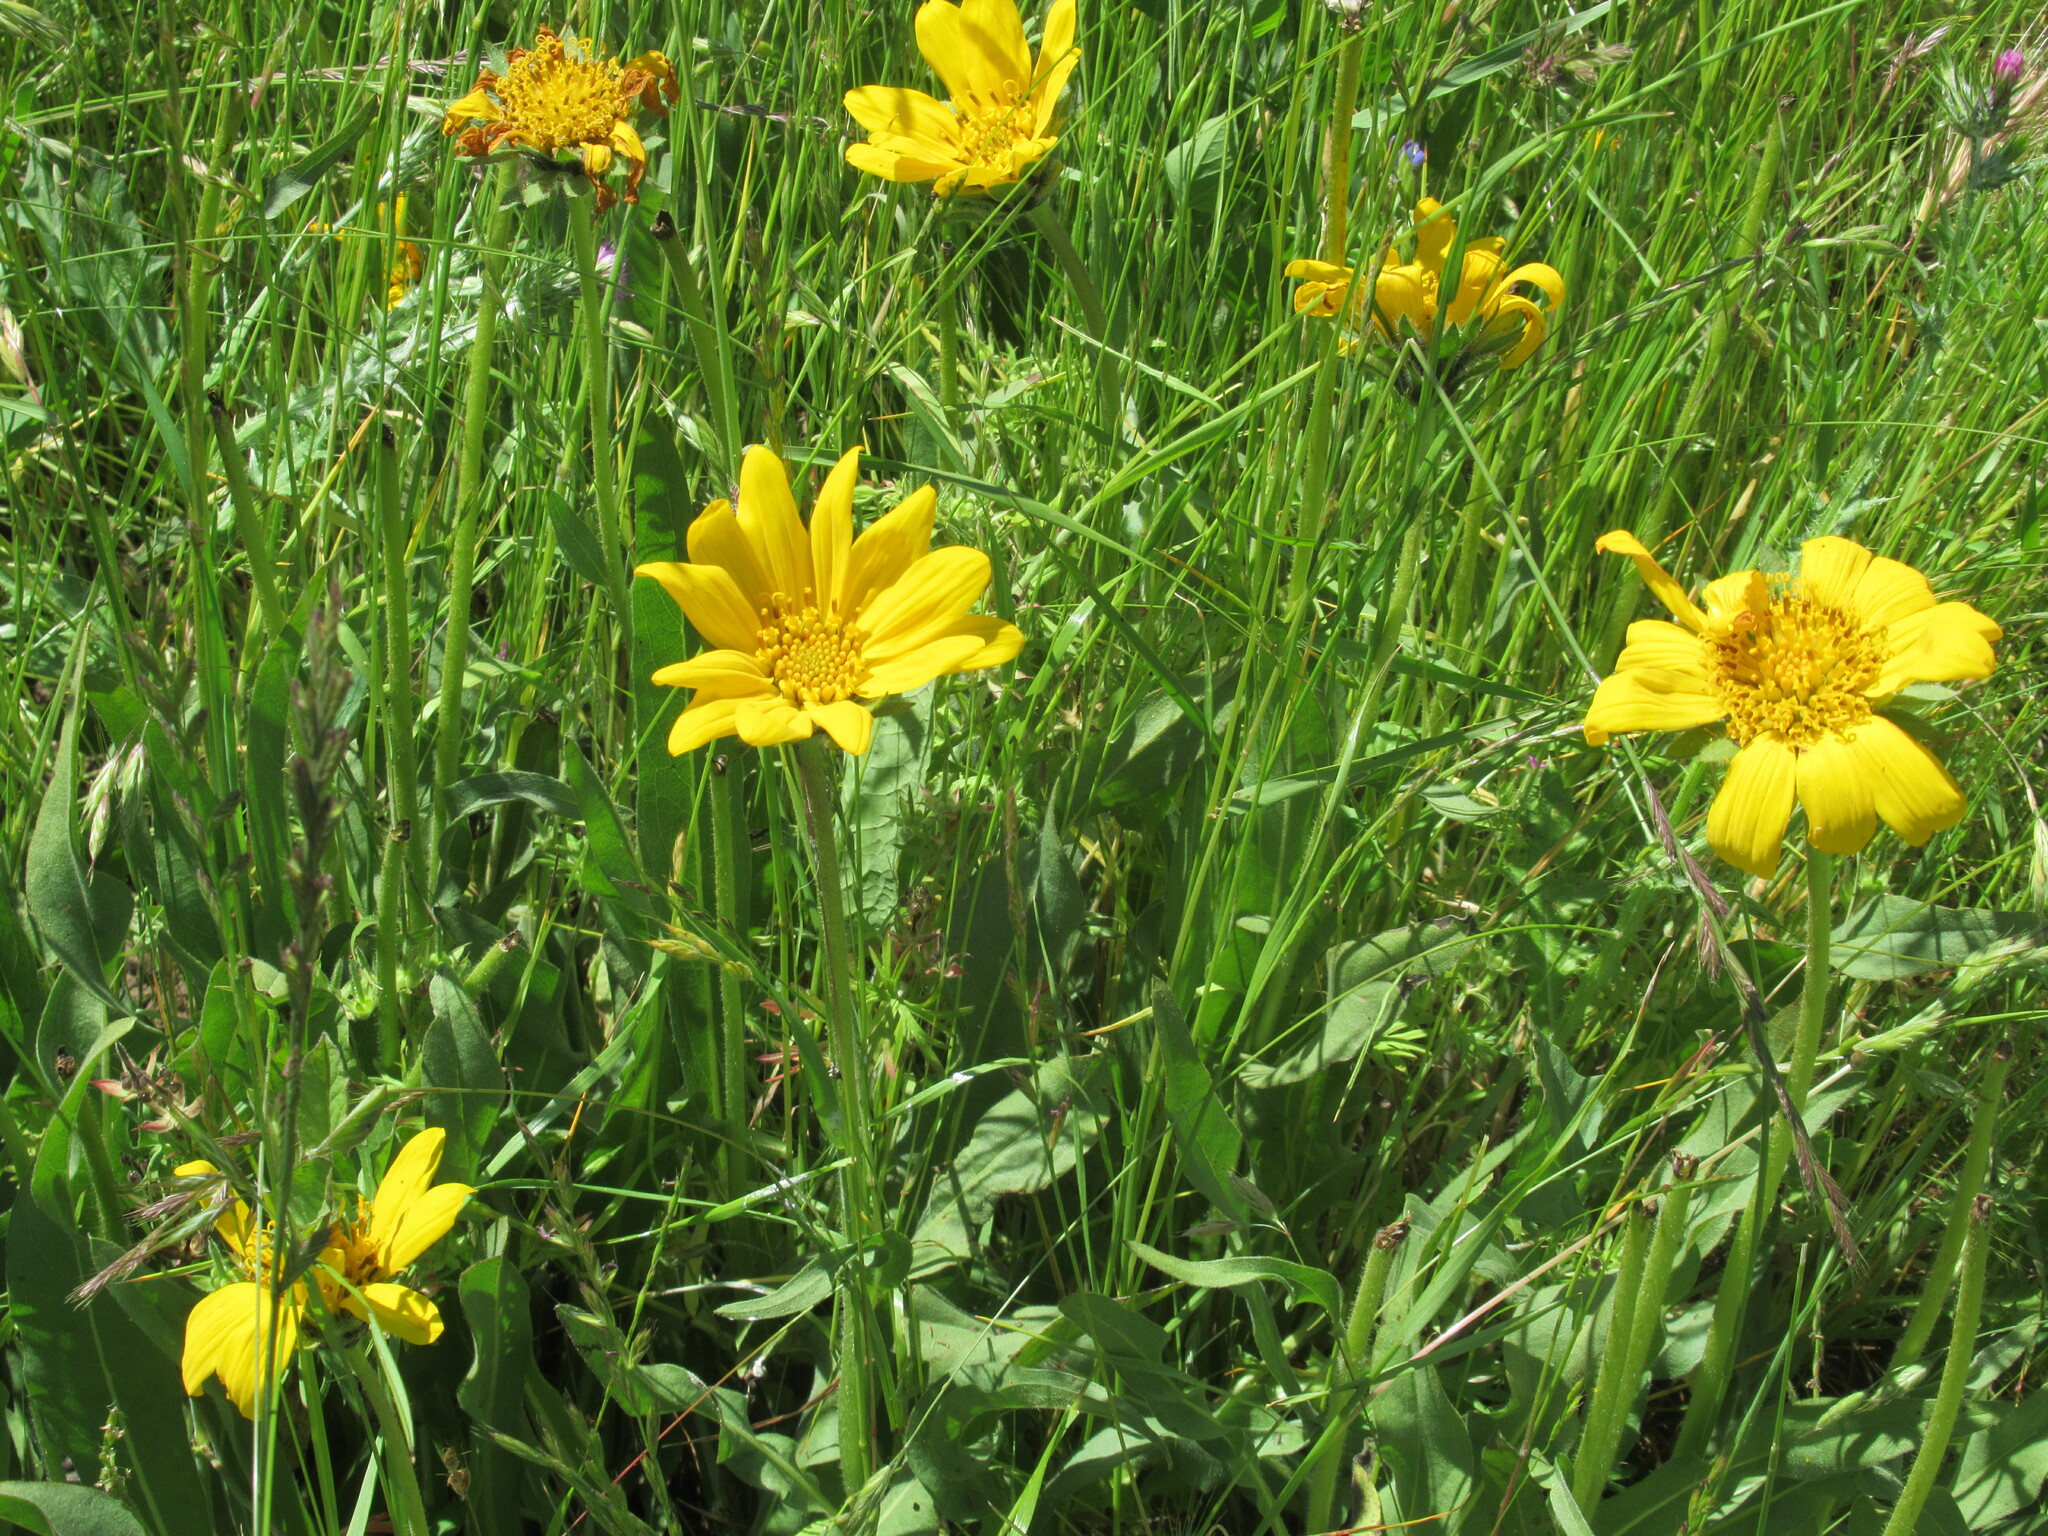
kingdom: Plantae
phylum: Tracheophyta
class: Magnoliopsida
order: Asterales
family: Asteraceae
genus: Wyethia
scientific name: Wyethia angustifolia
